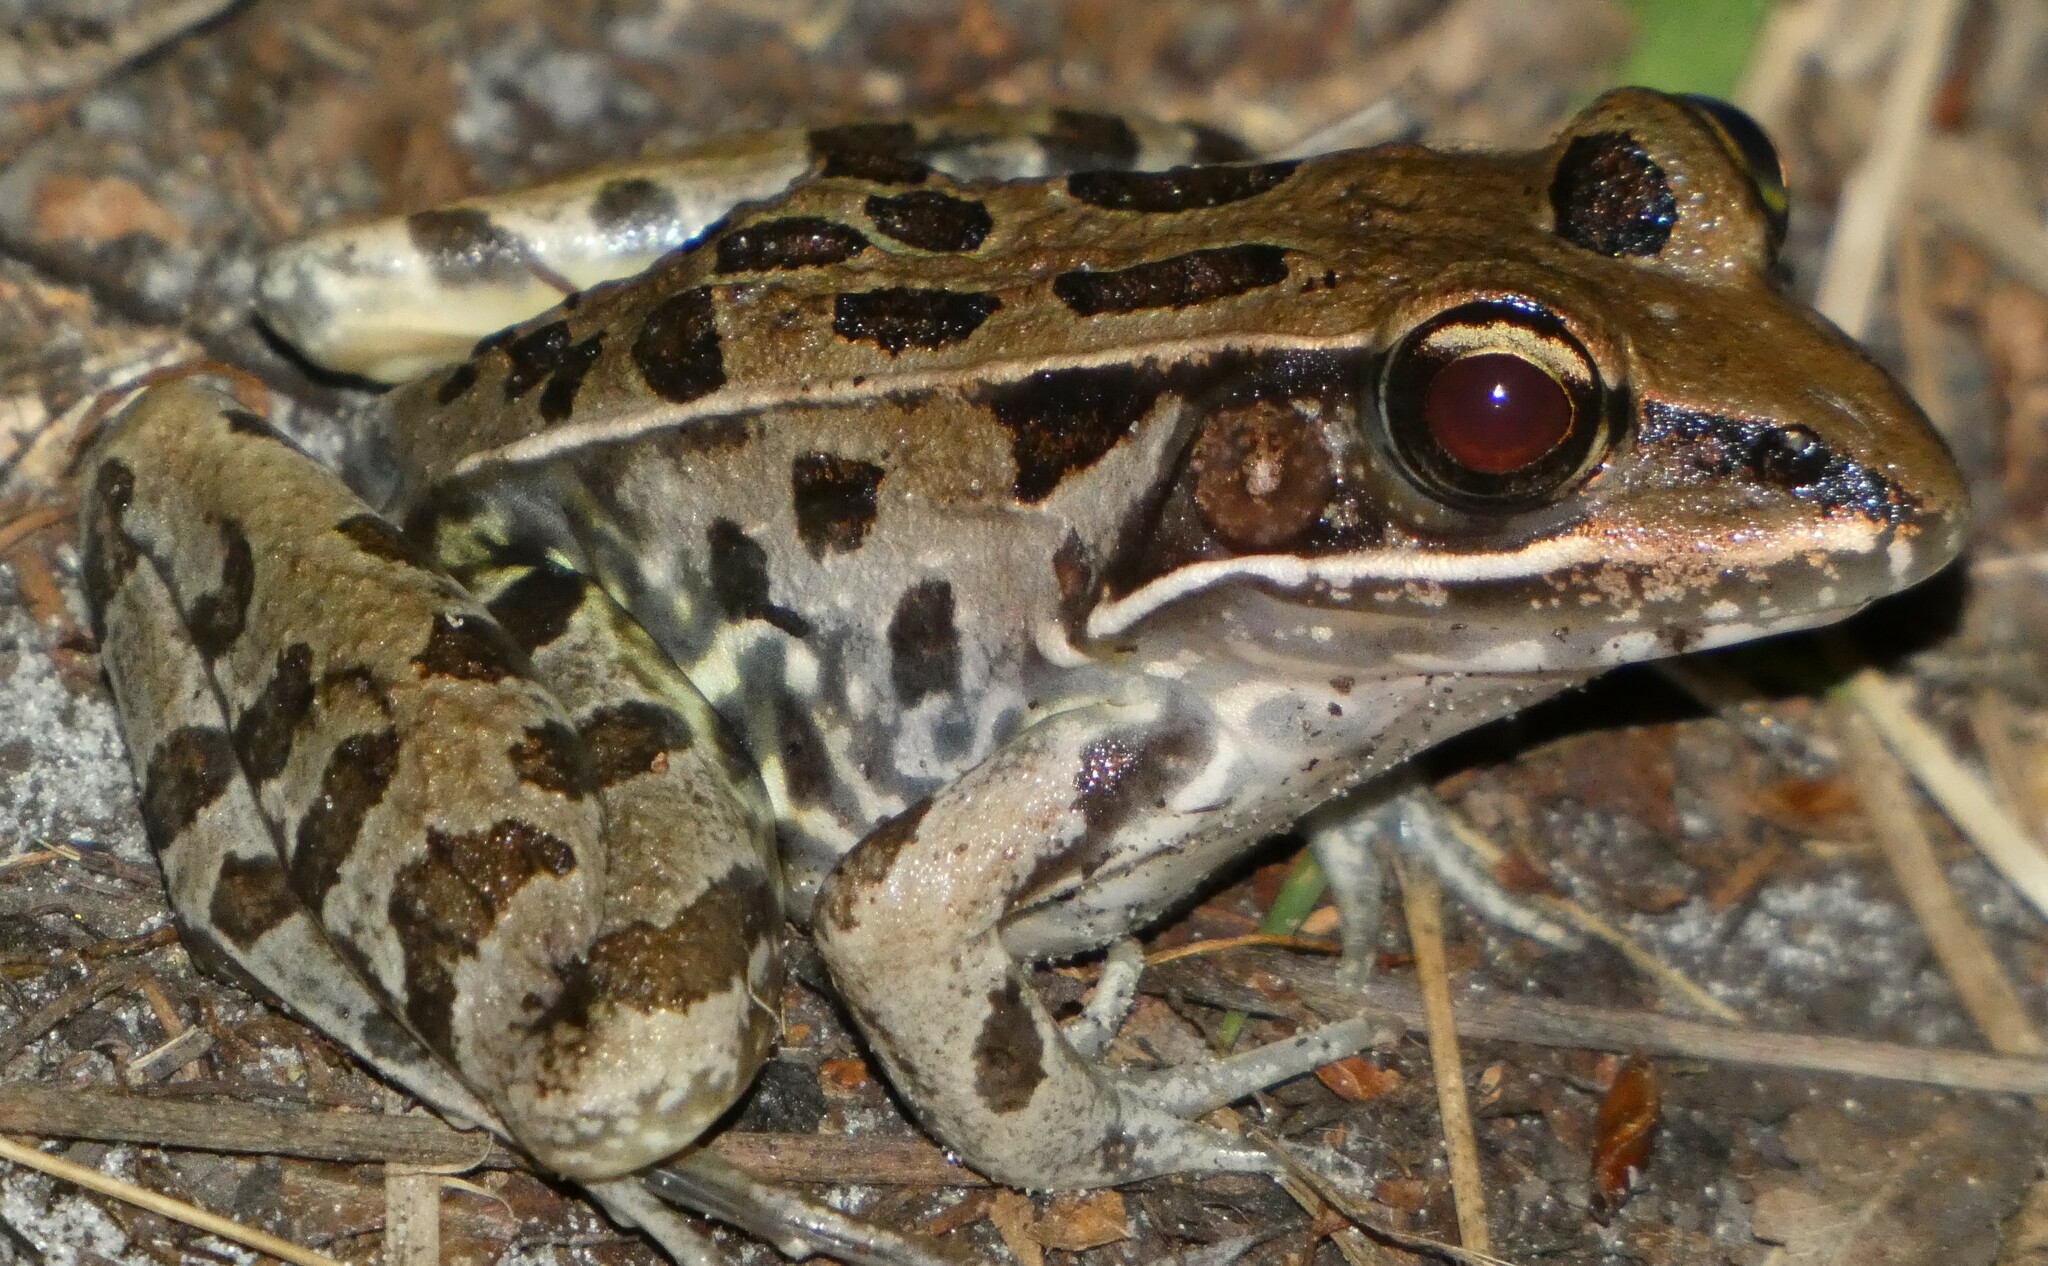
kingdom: Animalia
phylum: Chordata
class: Amphibia
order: Anura
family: Ranidae
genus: Lithobates
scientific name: Lithobates sphenocephalus
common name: Southern leopard frog
